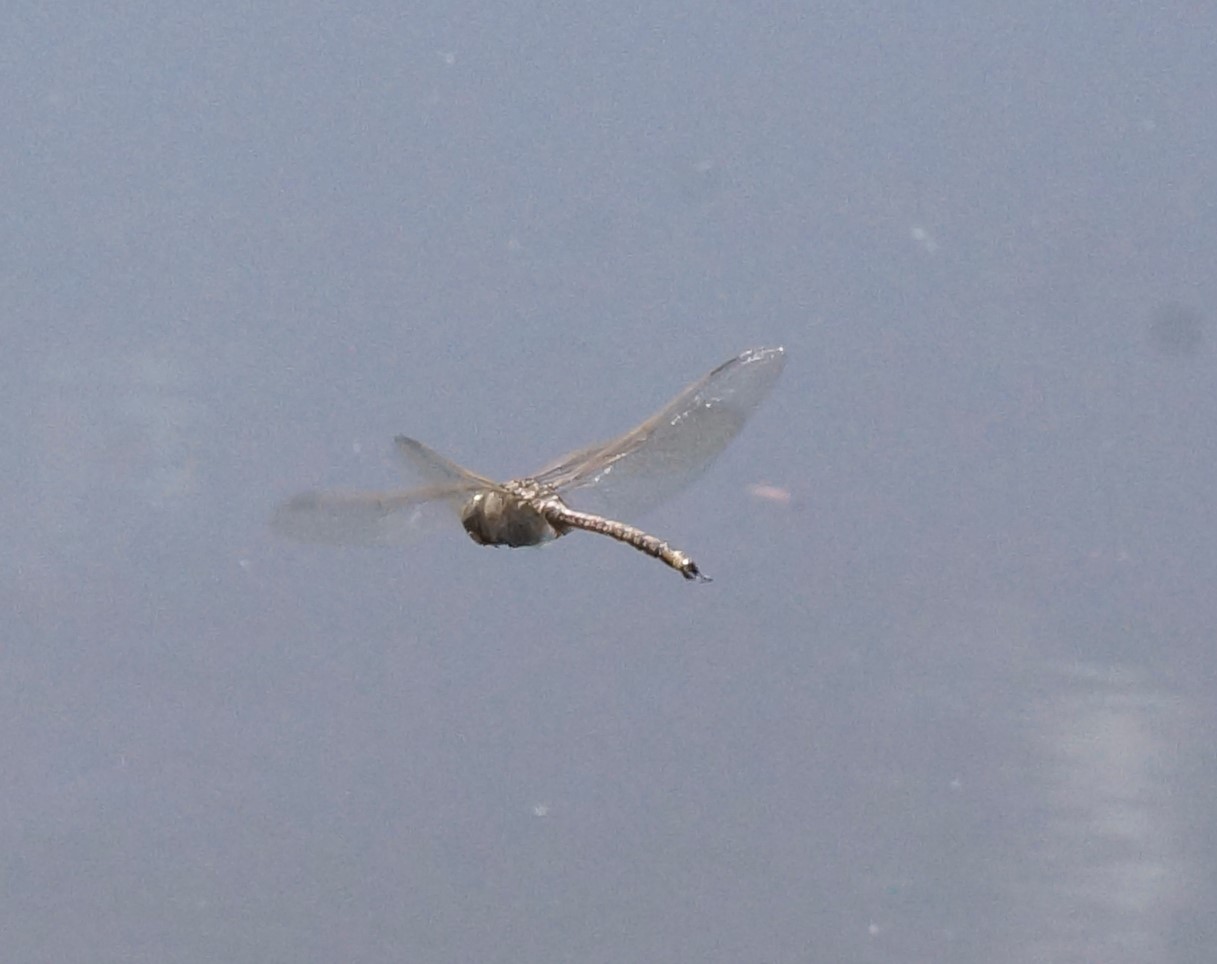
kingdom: Animalia
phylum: Arthropoda
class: Insecta
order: Odonata
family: Aeshnidae
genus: Anax
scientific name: Anax papuensis
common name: Australian emperor
